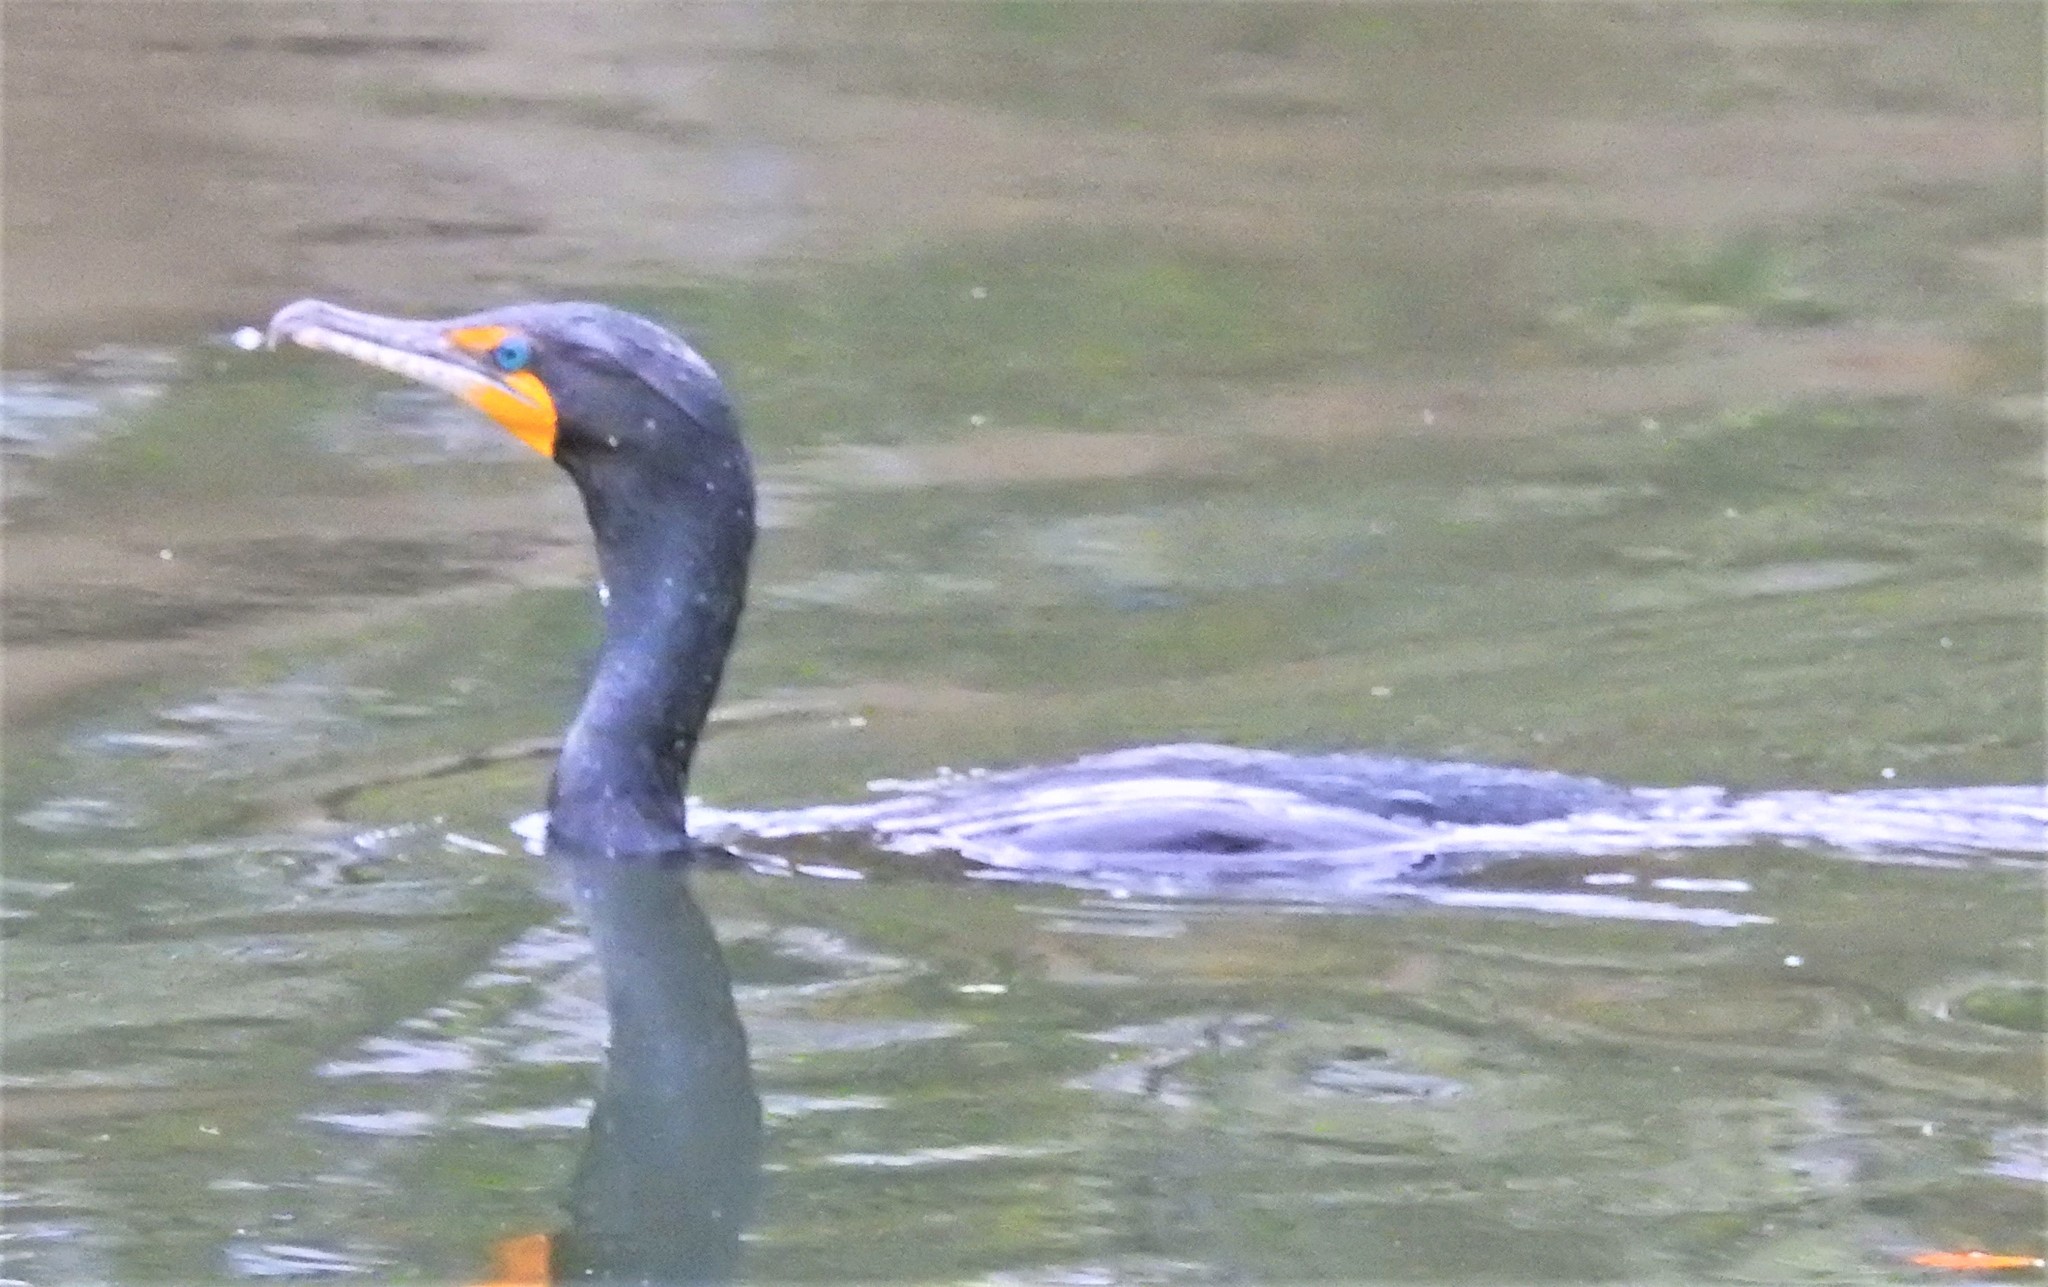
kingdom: Animalia
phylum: Chordata
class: Aves
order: Suliformes
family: Phalacrocoracidae
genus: Phalacrocorax
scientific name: Phalacrocorax auritus
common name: Double-crested cormorant
